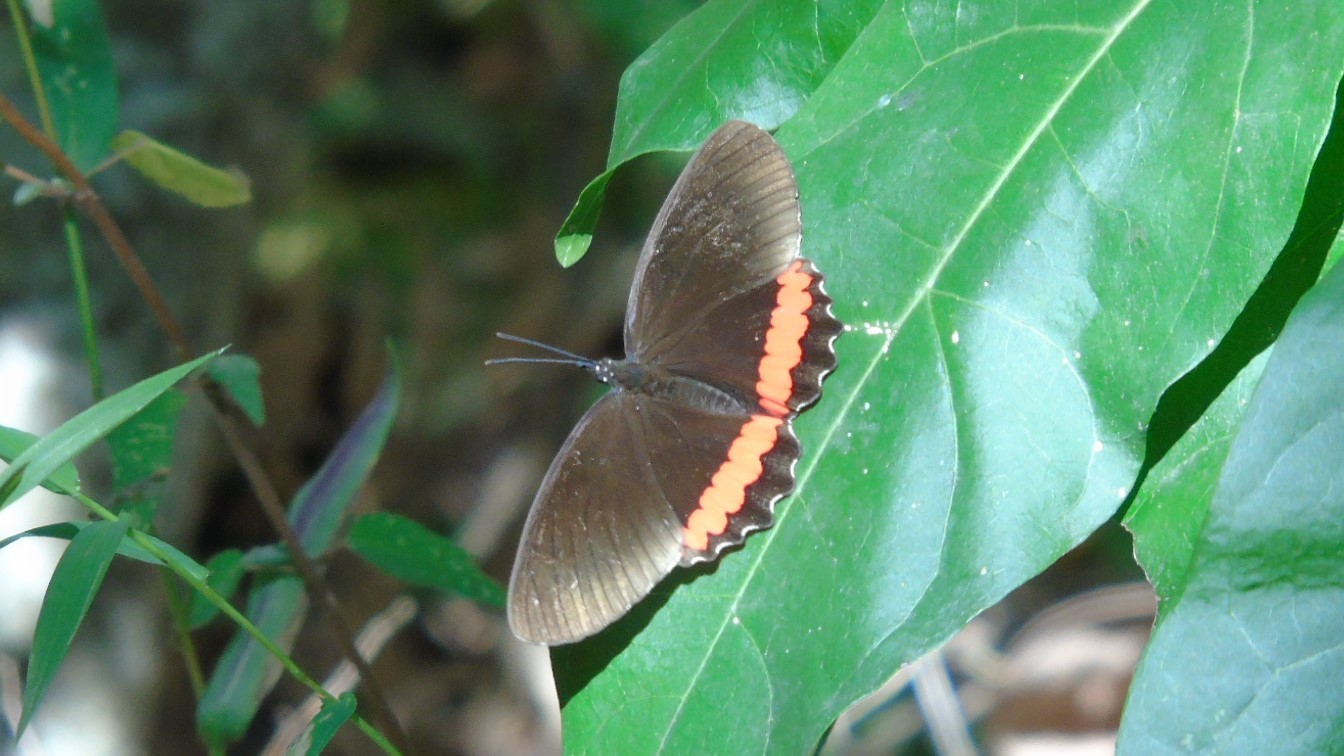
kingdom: Animalia
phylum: Arthropoda
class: Insecta
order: Lepidoptera
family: Nymphalidae
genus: Biblis
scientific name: Biblis aganisa
